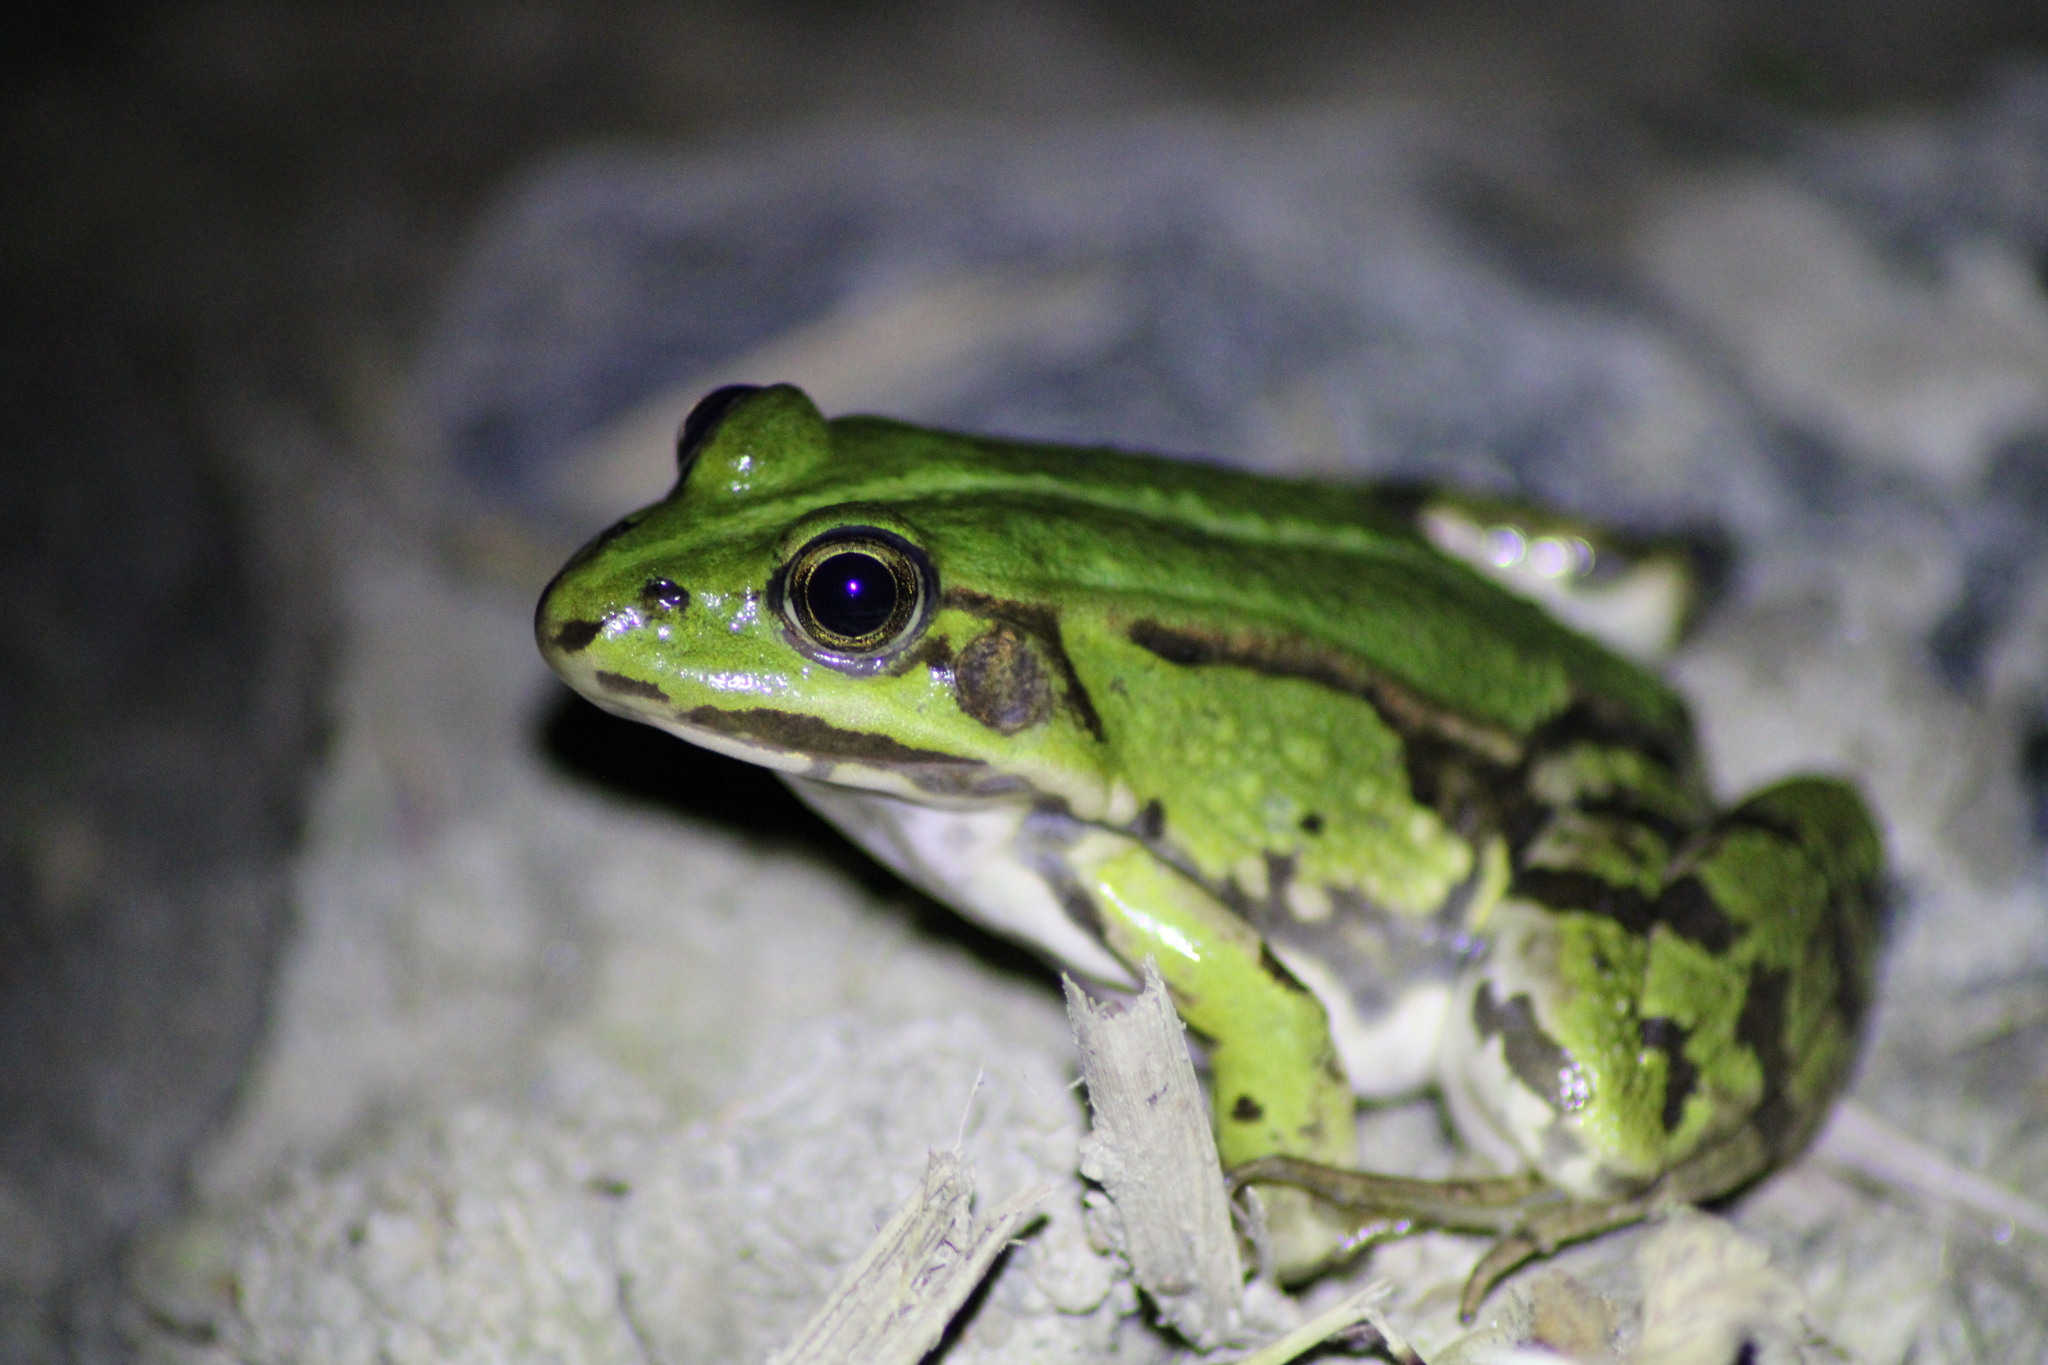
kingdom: Animalia
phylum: Chordata
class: Amphibia
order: Anura
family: Ranidae
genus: Pelophylax
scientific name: Pelophylax
